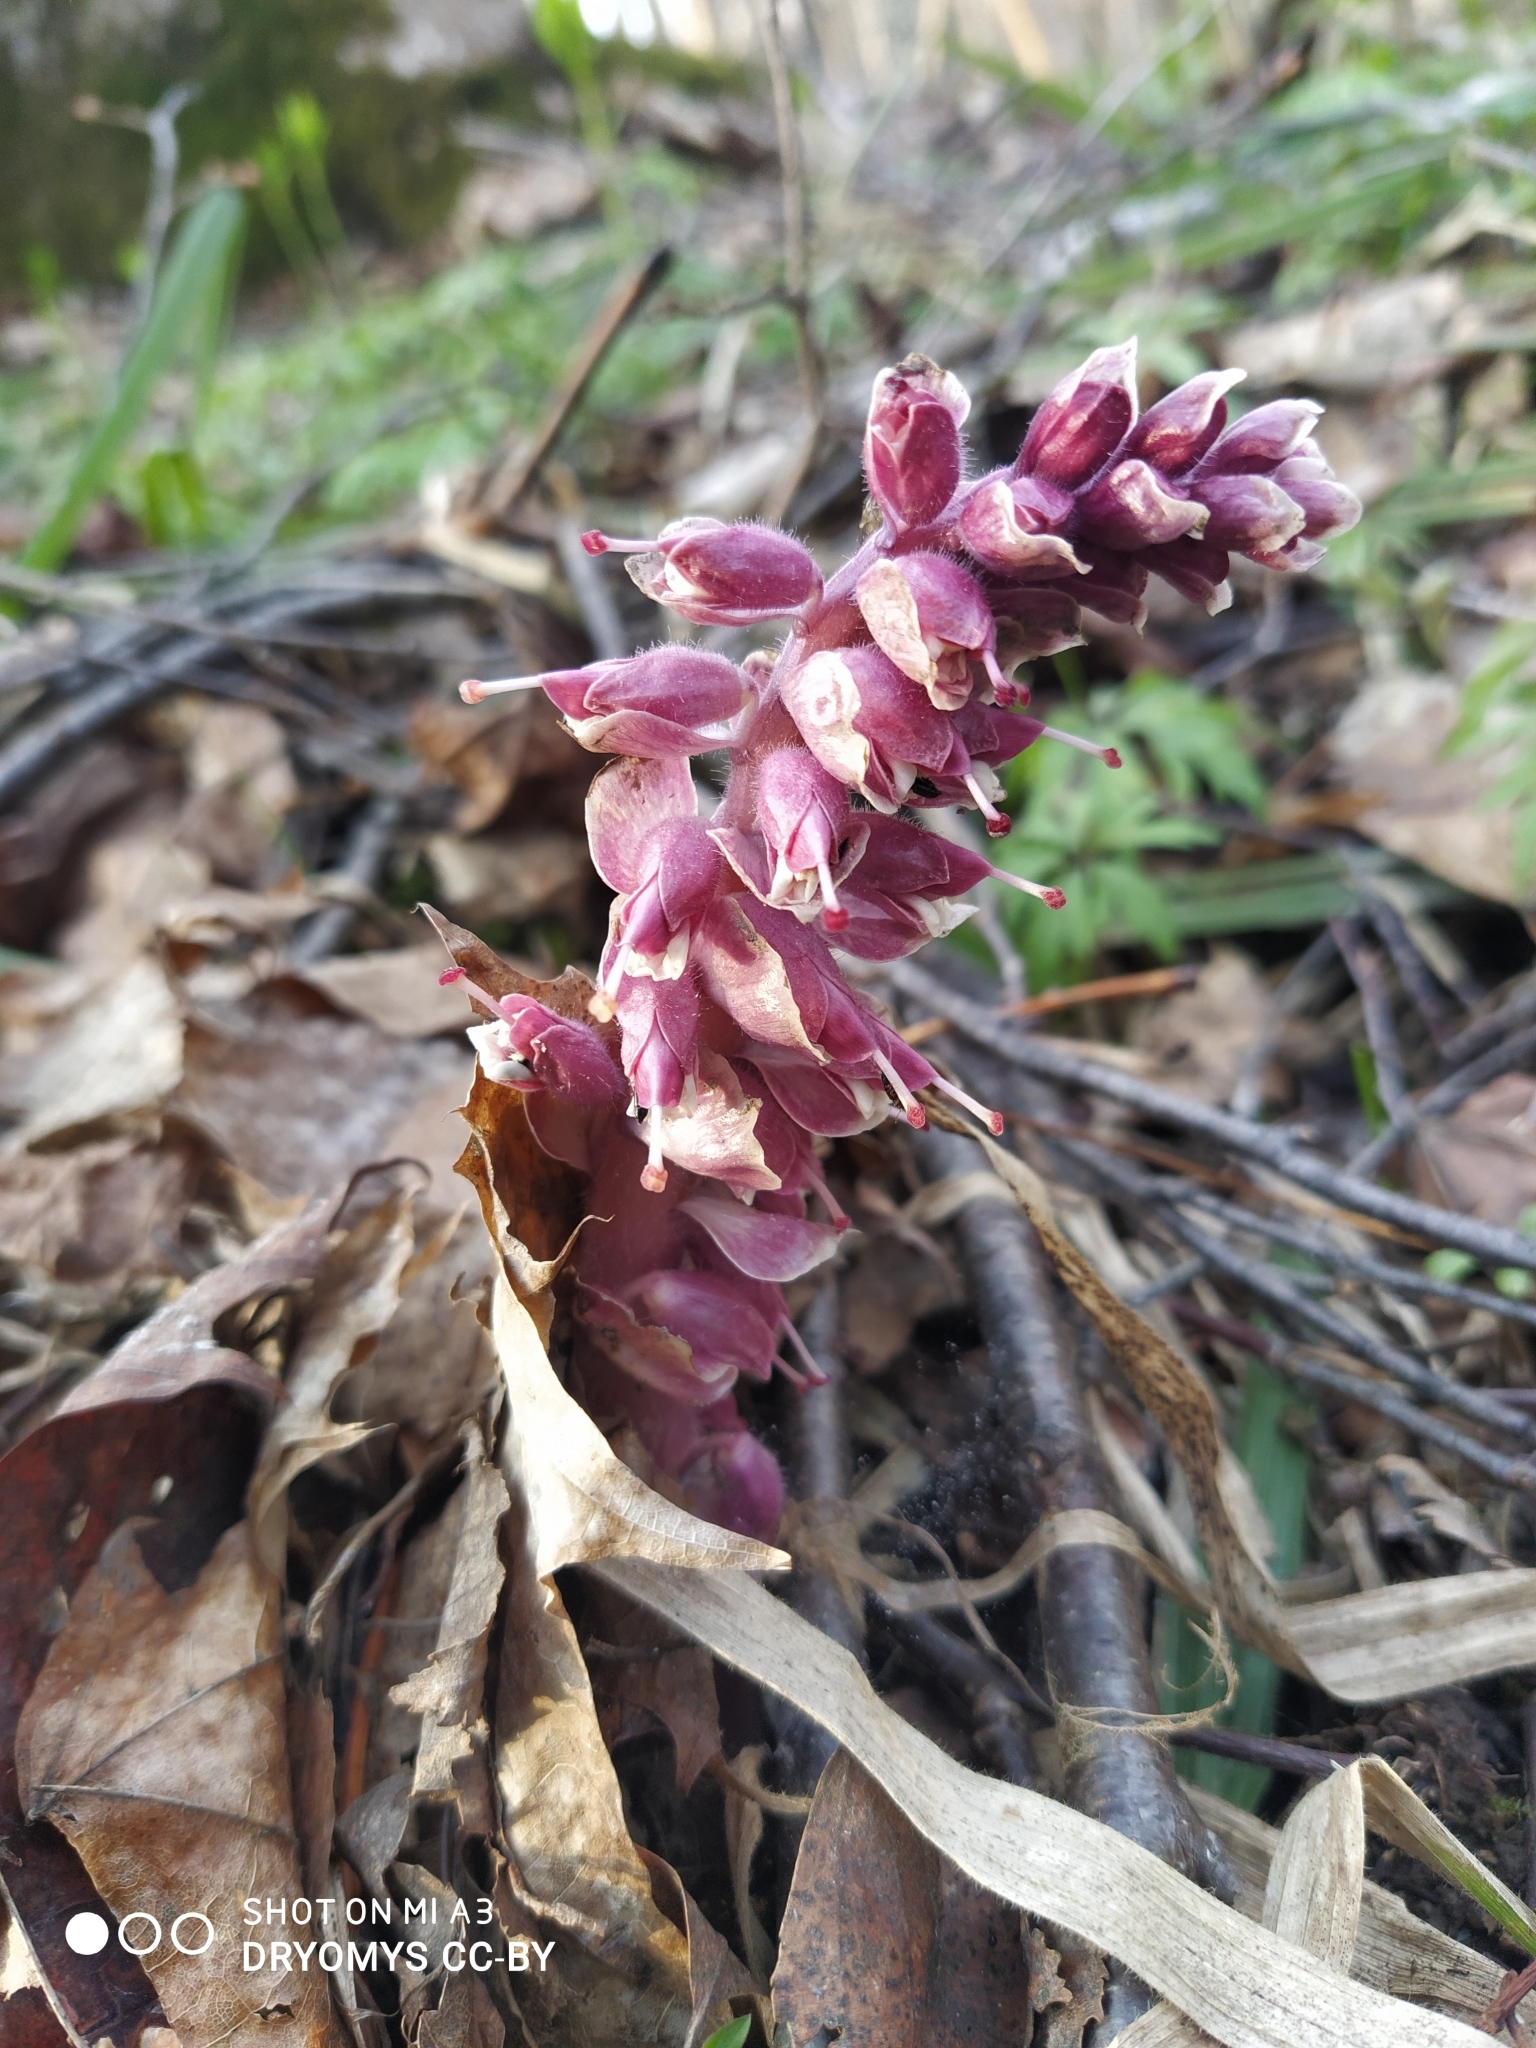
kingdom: Plantae
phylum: Tracheophyta
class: Magnoliopsida
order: Lamiales
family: Orobanchaceae
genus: Lathraea
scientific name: Lathraea squamaria
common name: Toothwort
